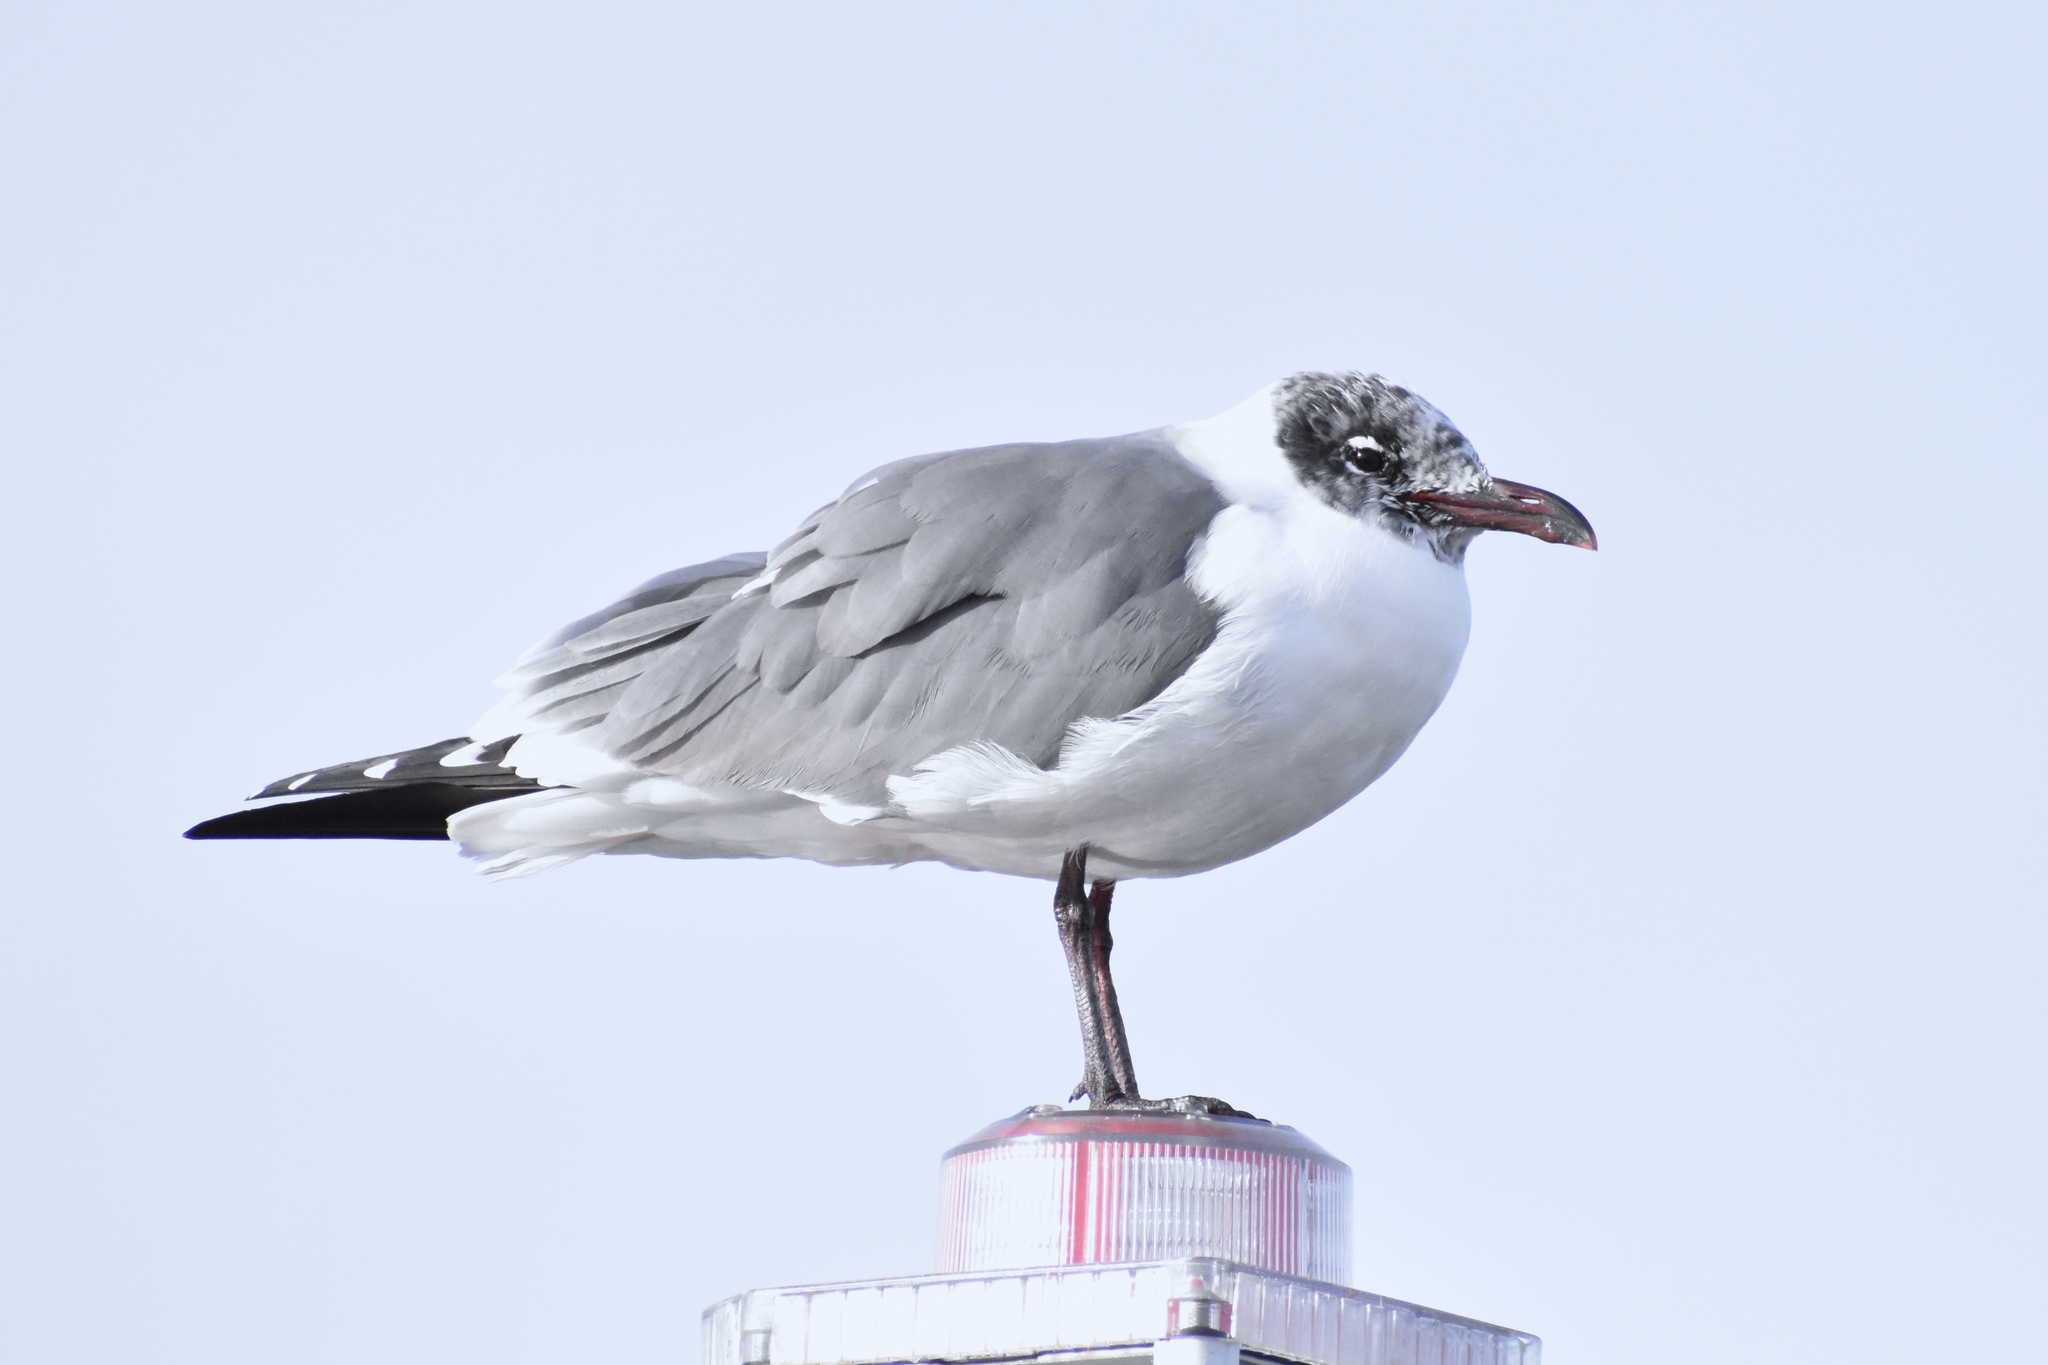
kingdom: Animalia
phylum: Chordata
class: Aves
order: Charadriiformes
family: Laridae
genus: Leucophaeus
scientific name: Leucophaeus atricilla
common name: Laughing gull
